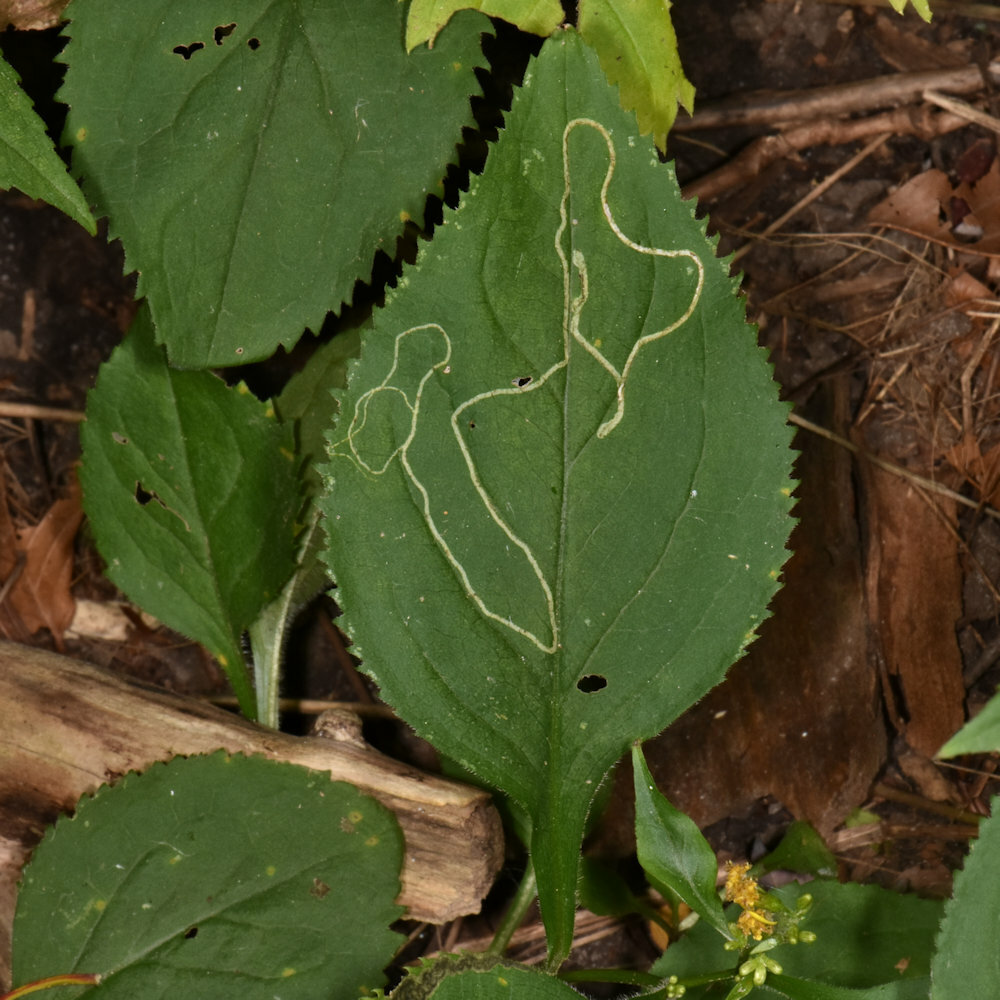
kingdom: Animalia
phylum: Arthropoda
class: Insecta
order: Diptera
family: Agromyzidae
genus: Ophiomyia
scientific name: Ophiomyia maura
